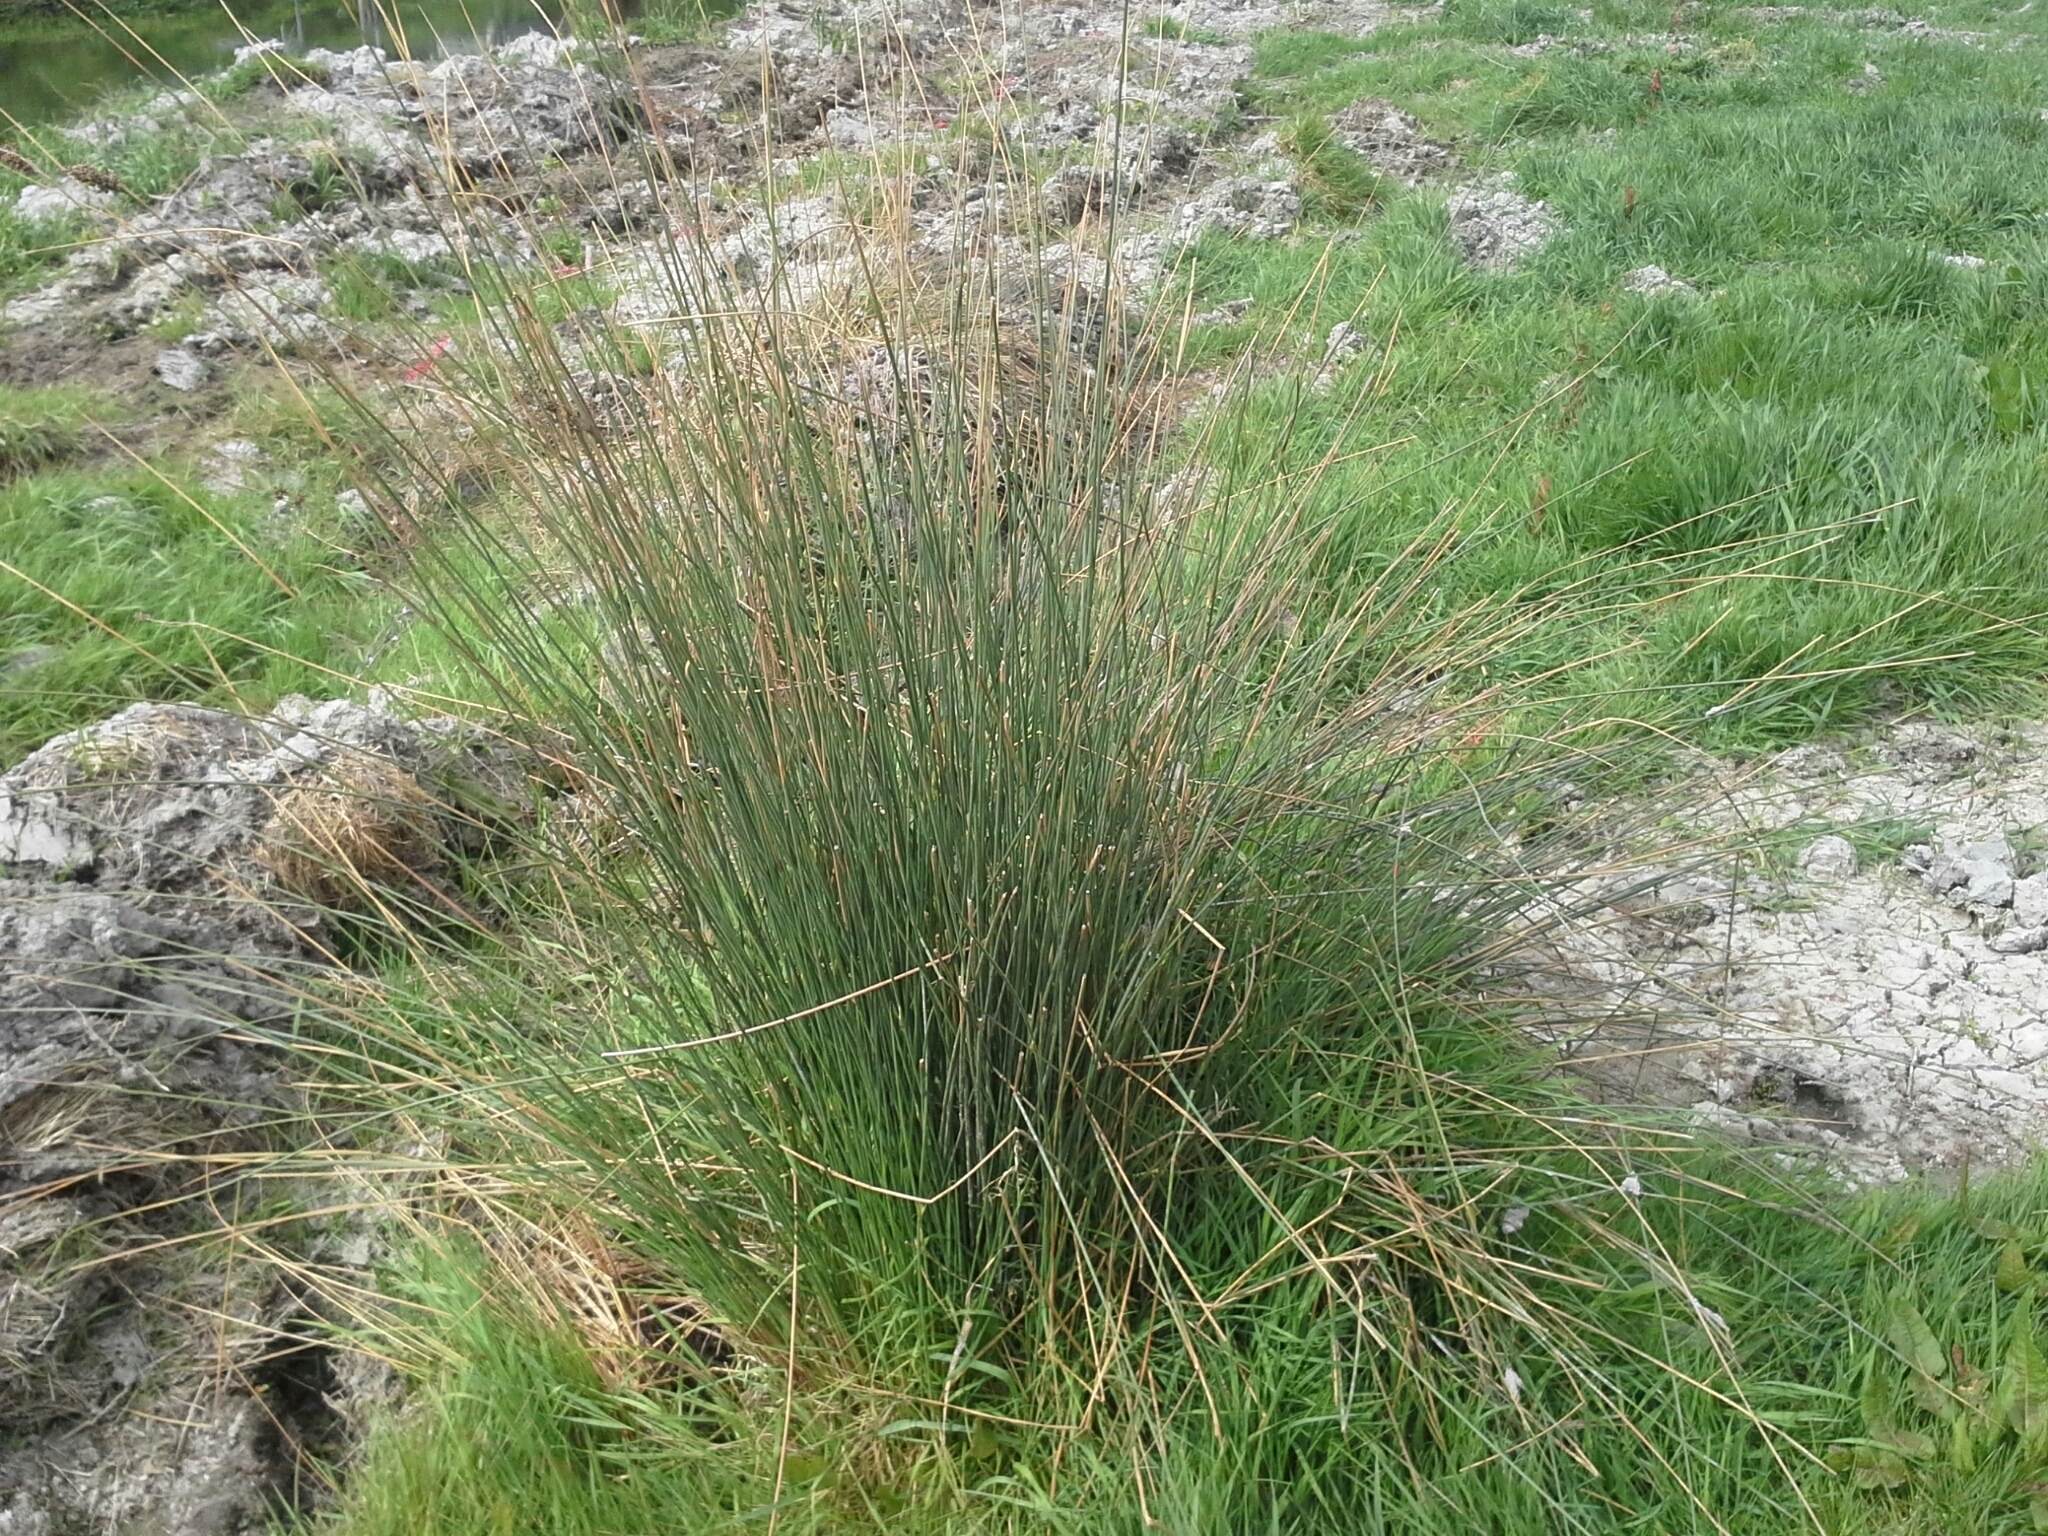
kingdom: Plantae
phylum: Tracheophyta
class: Liliopsida
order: Poales
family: Juncaceae
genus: Juncus
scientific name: Juncus sarophorus
